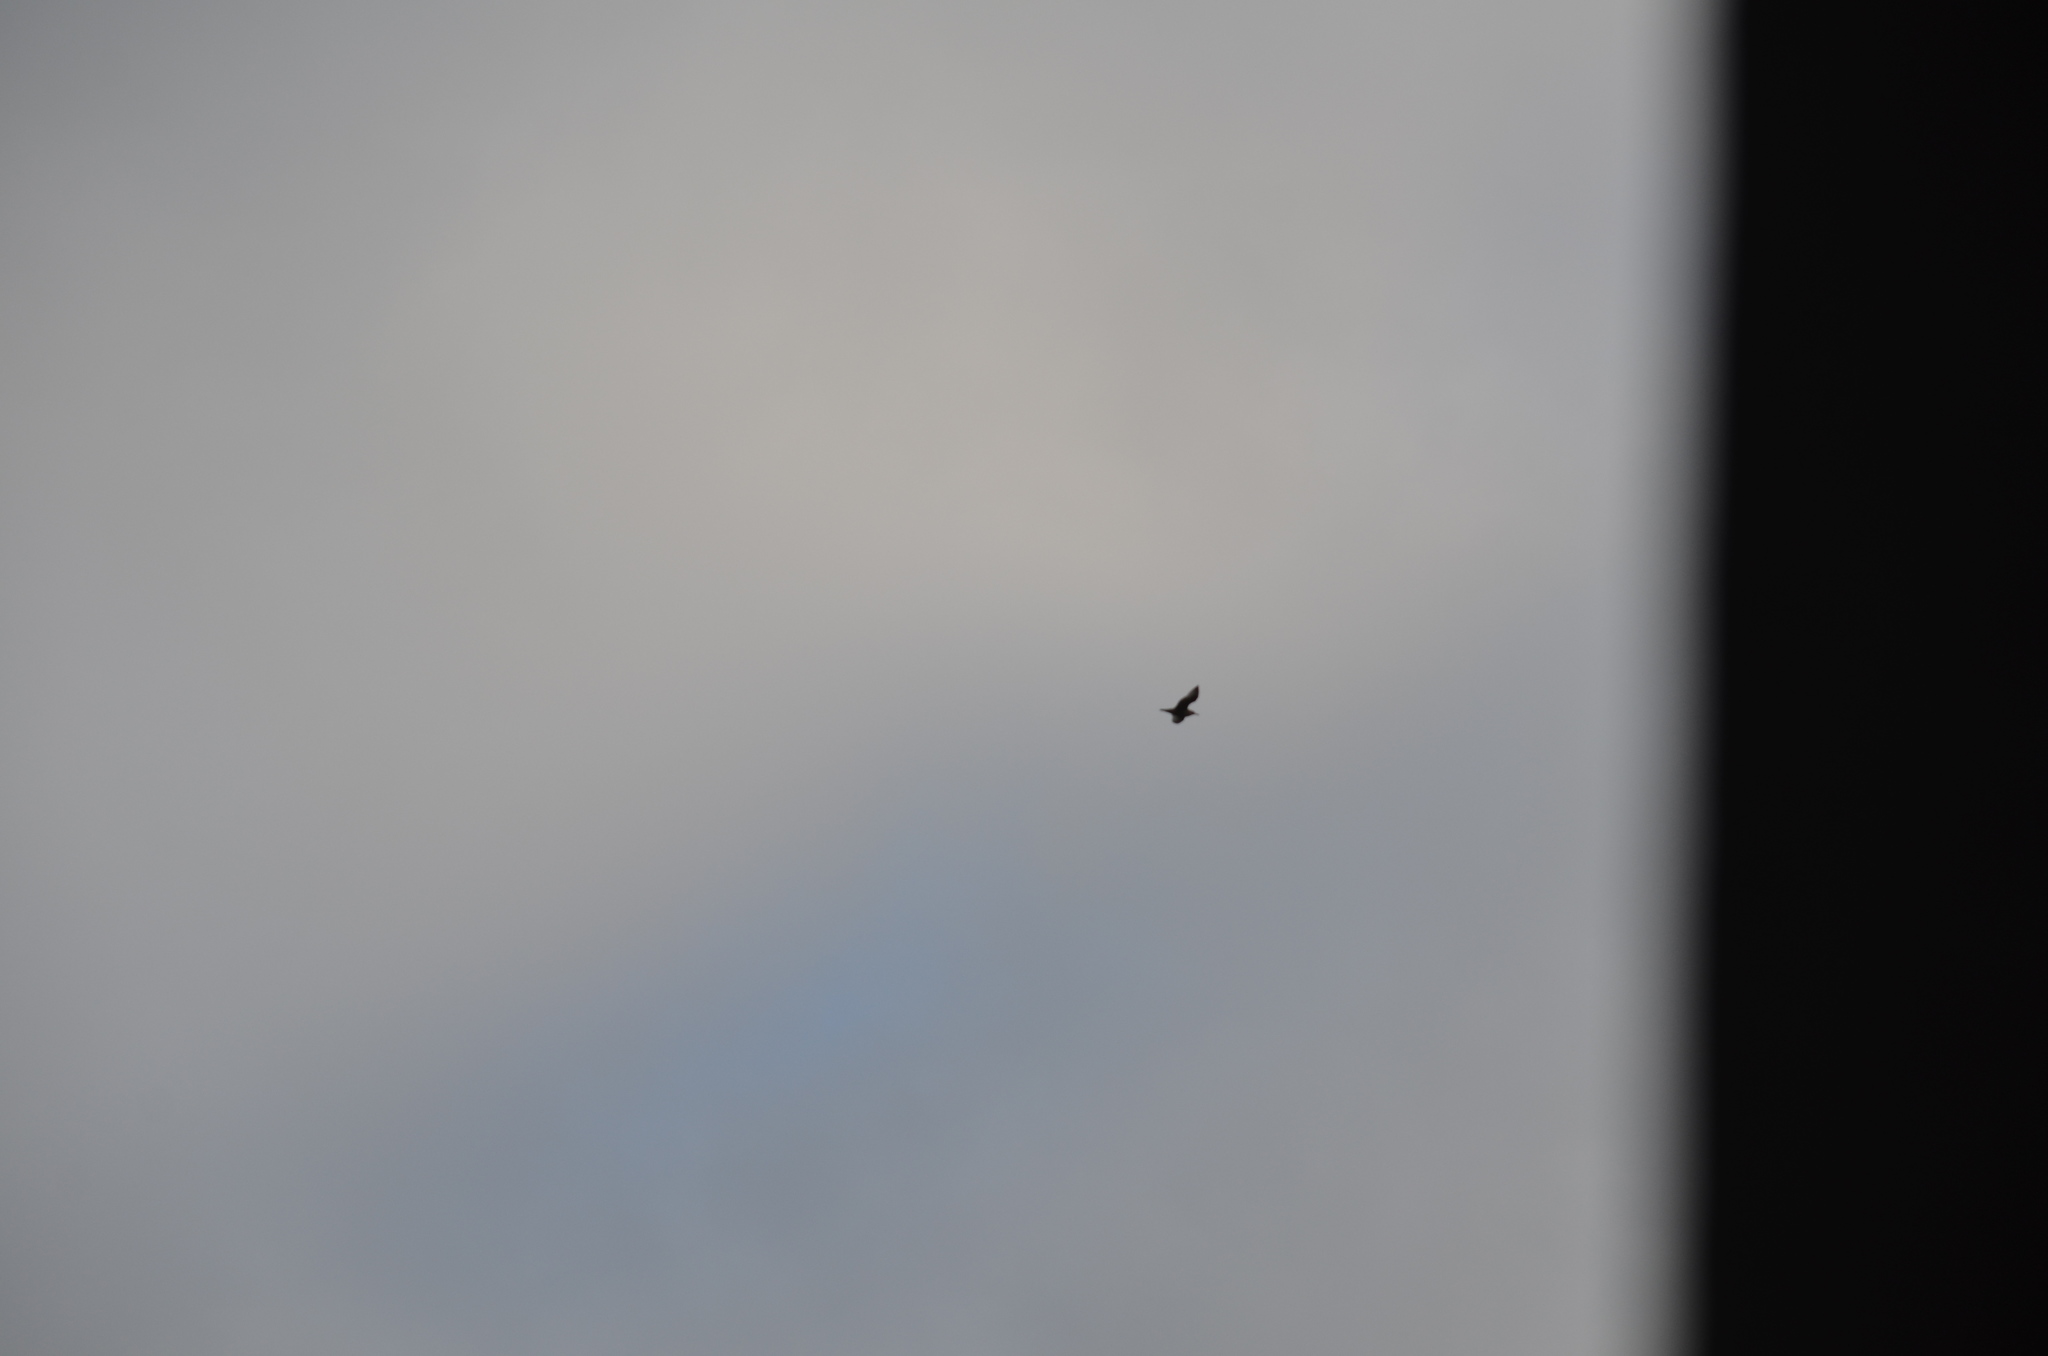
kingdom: Animalia
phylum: Chordata
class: Aves
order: Charadriiformes
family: Laridae
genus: Larus
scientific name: Larus
